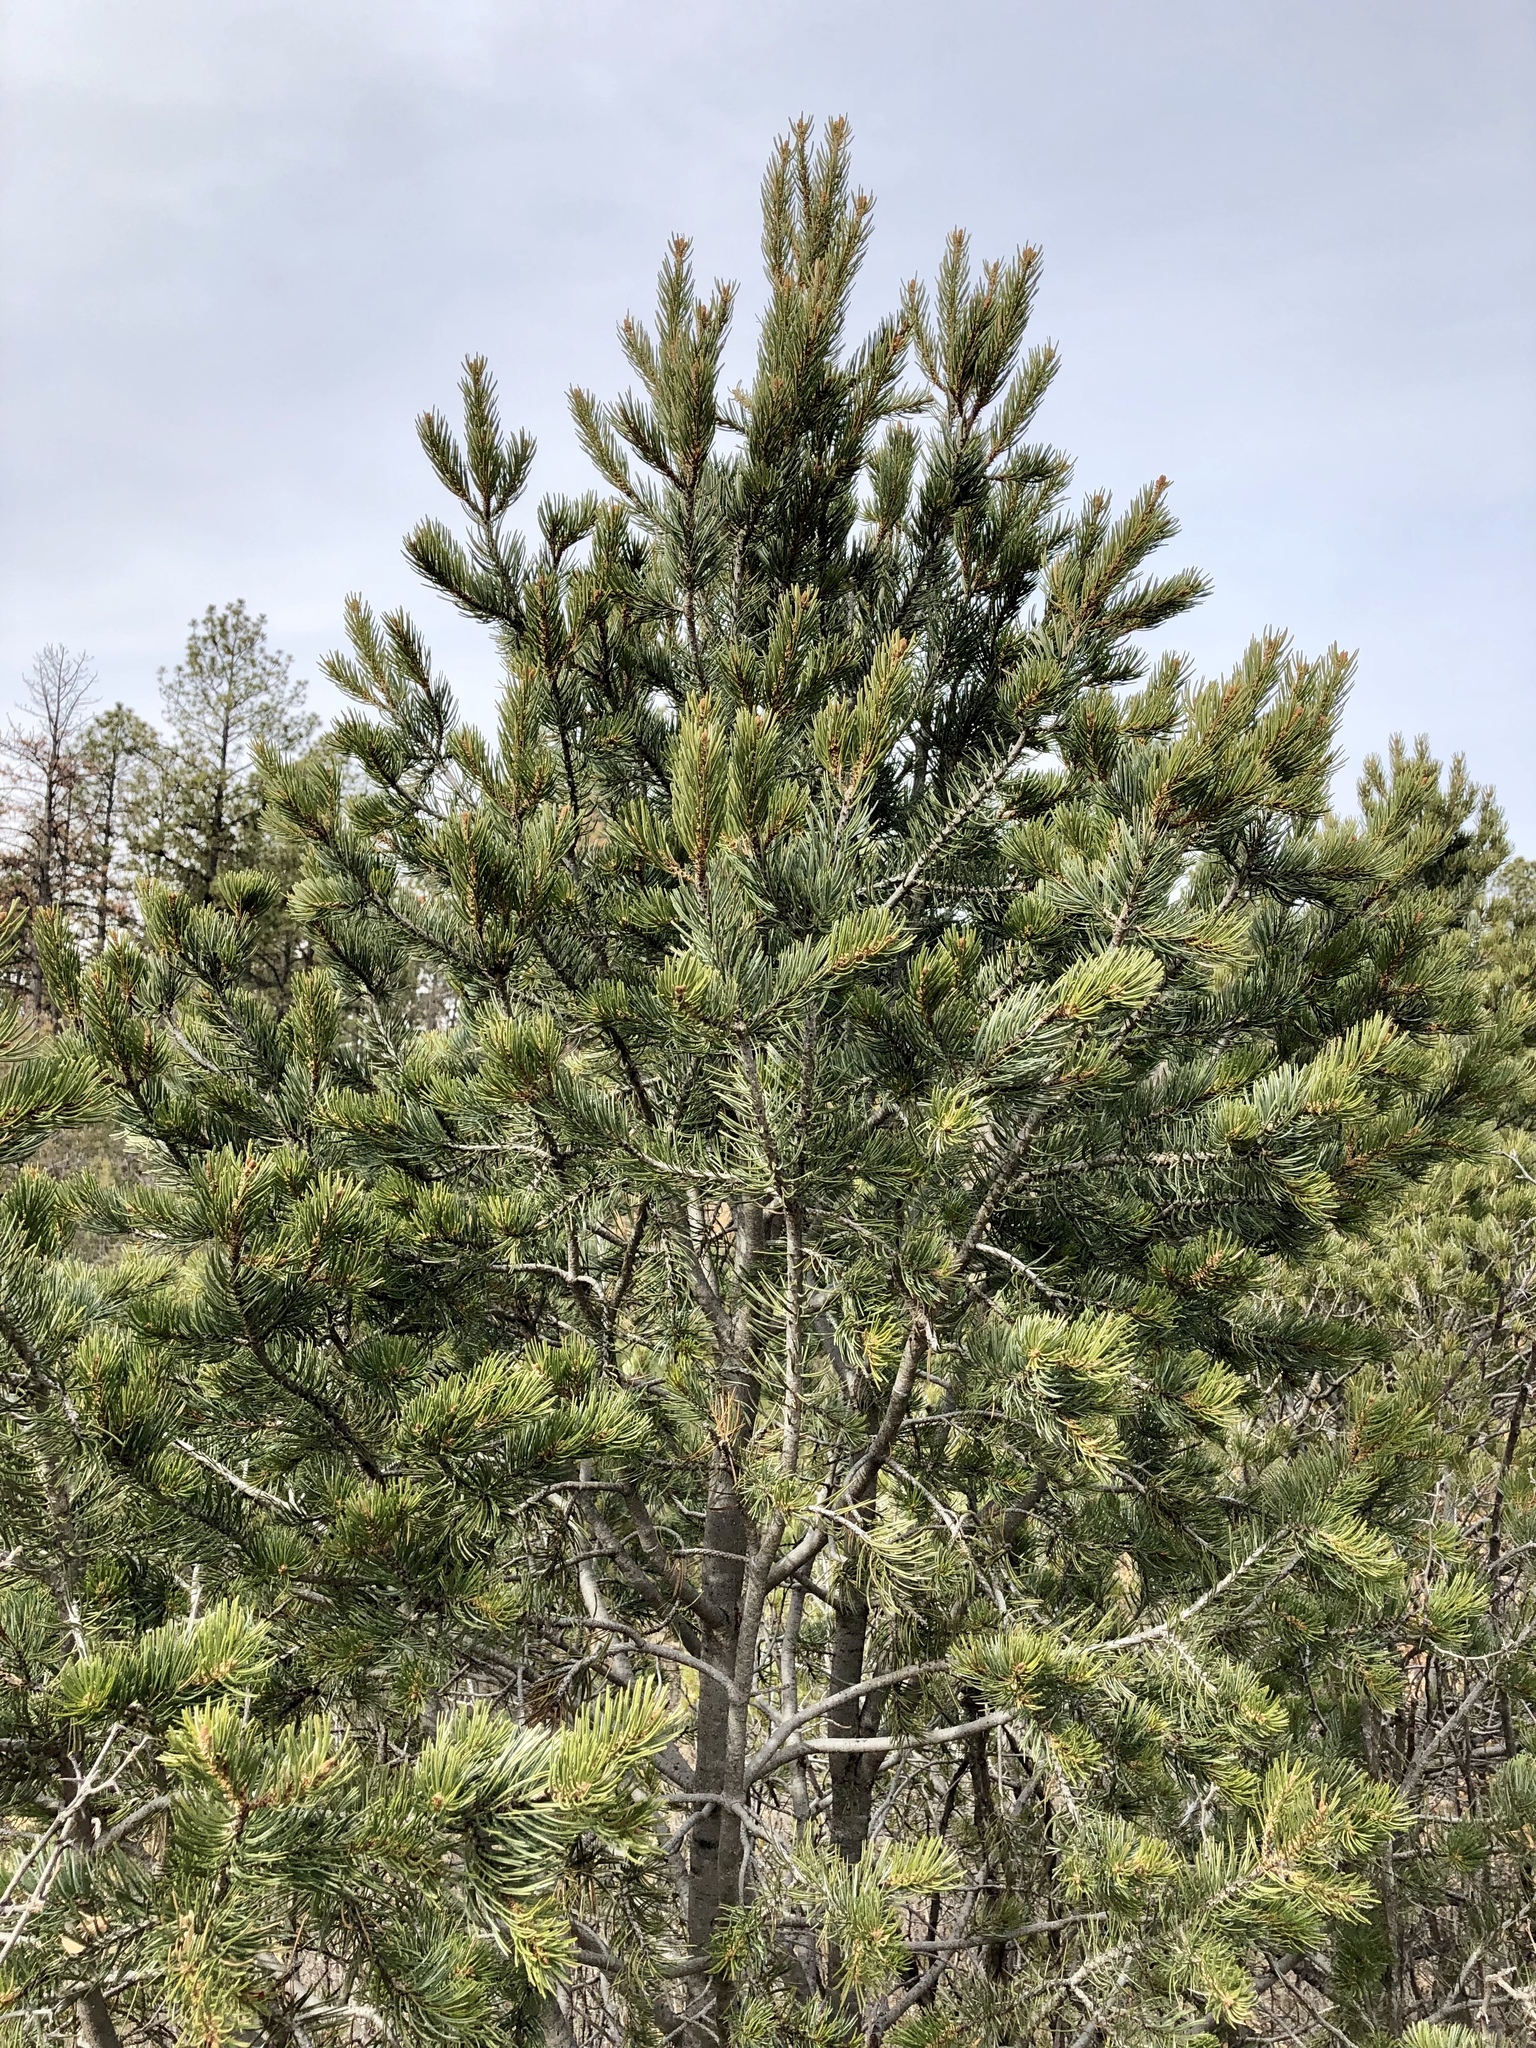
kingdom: Plantae
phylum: Tracheophyta
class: Pinopsida
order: Pinales
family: Pinaceae
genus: Pinus
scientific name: Pinus edulis
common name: Colorado pinyon
